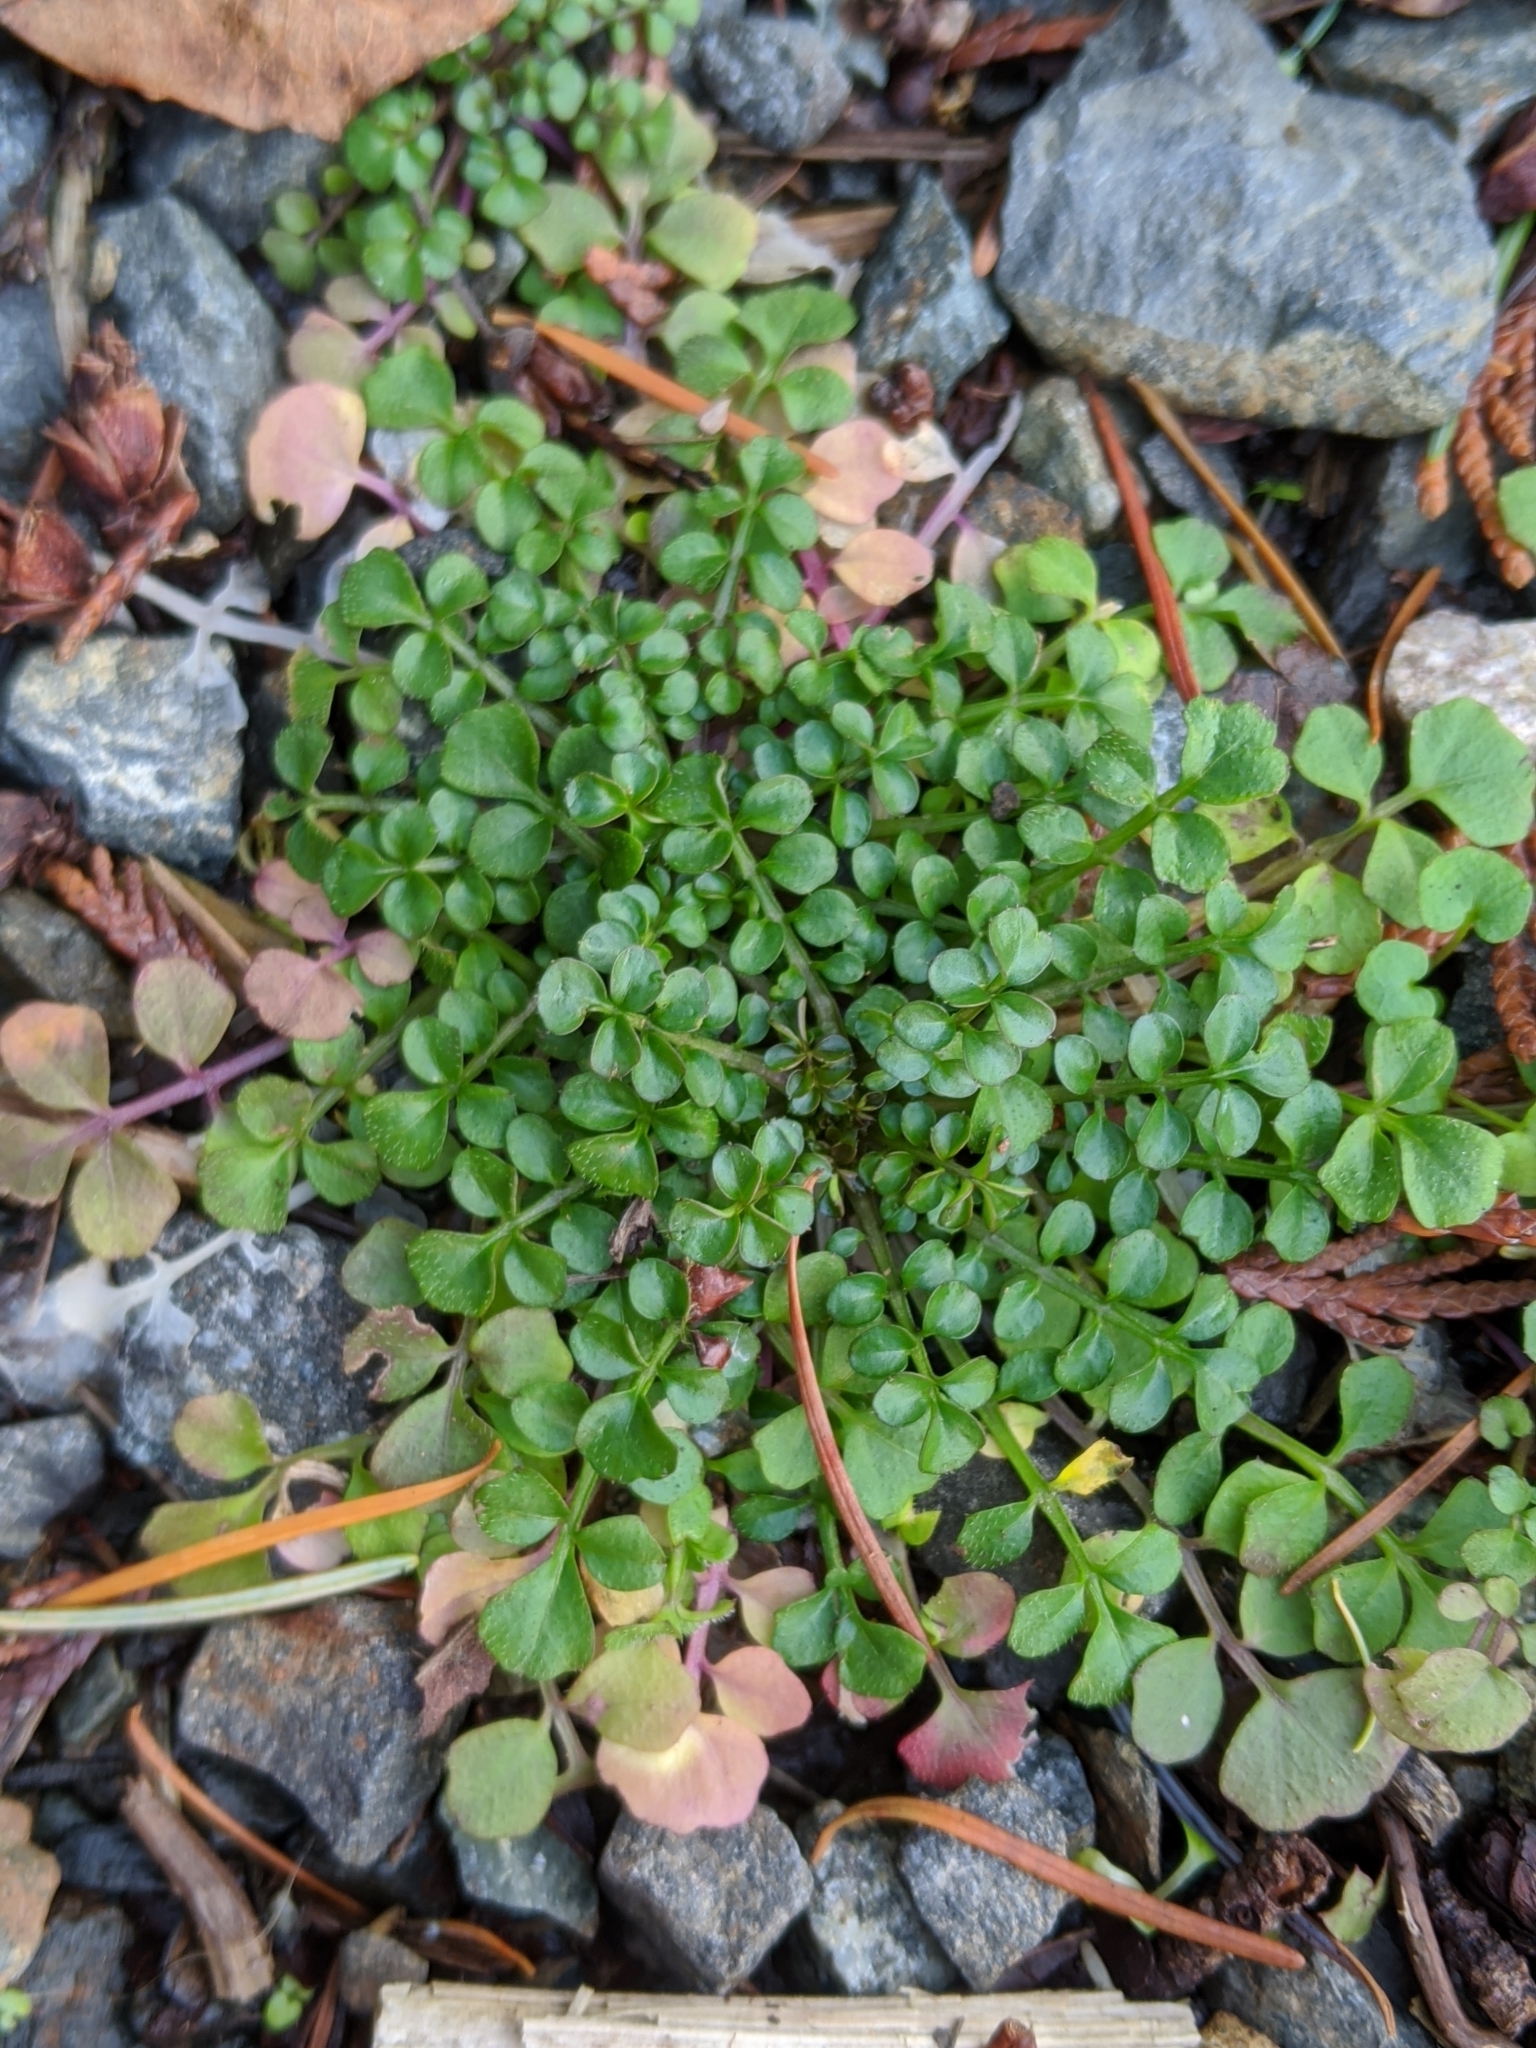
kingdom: Plantae
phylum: Tracheophyta
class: Magnoliopsida
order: Brassicales
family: Brassicaceae
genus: Cardamine
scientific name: Cardamine hirsuta
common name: Hairy bittercress
